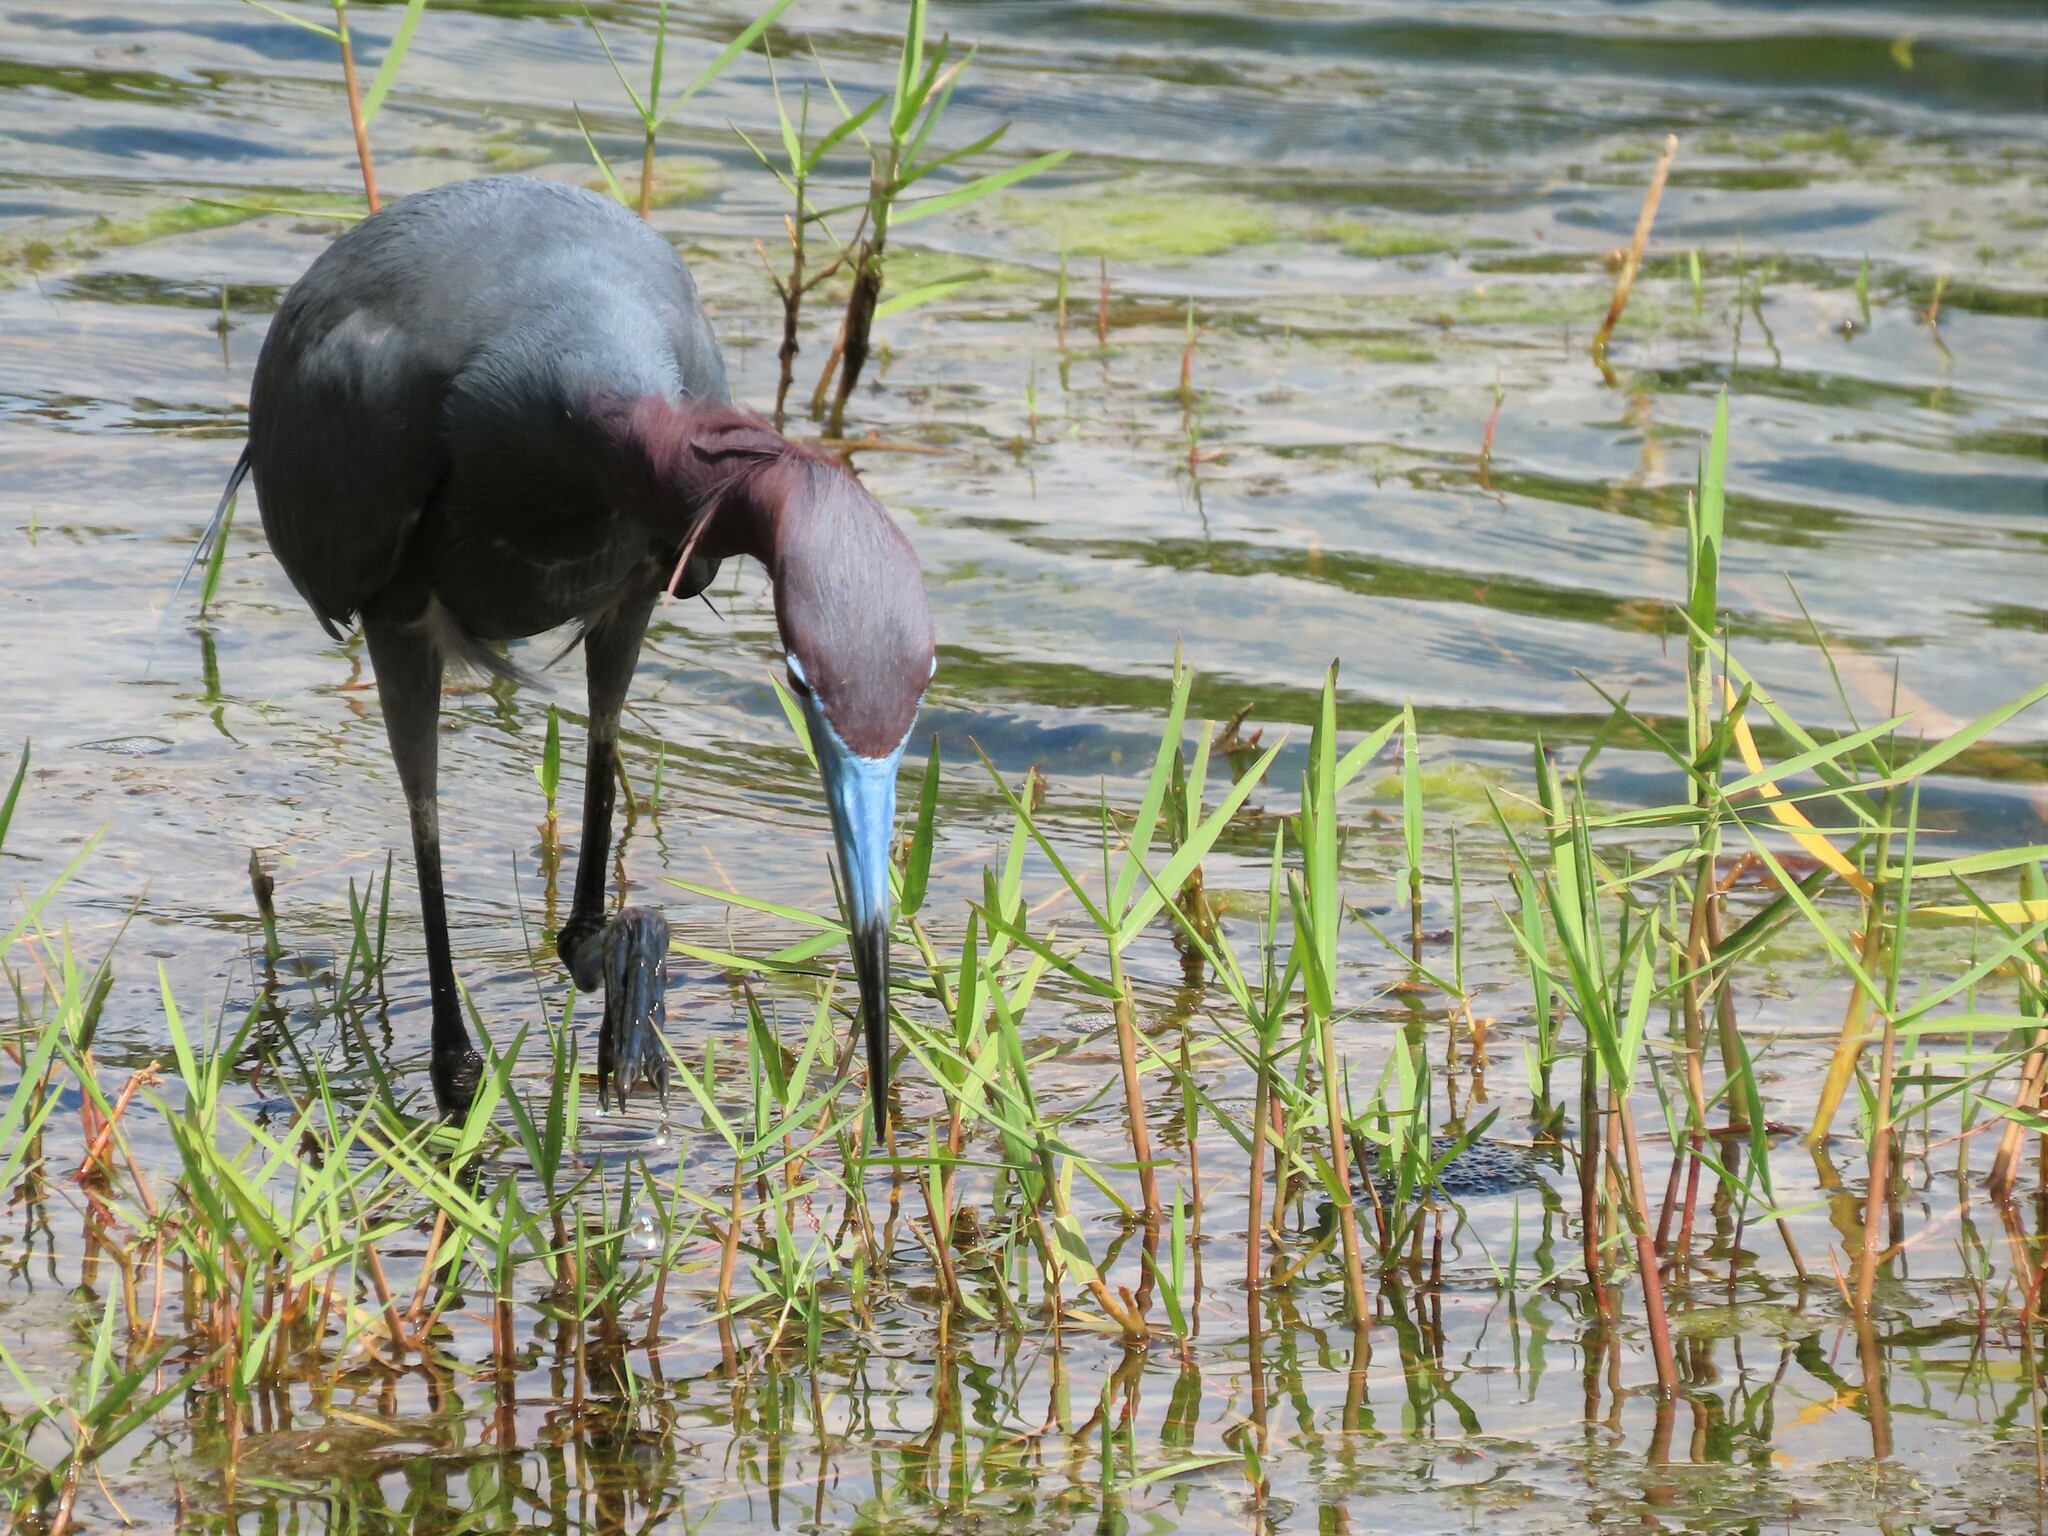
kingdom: Animalia
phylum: Chordata
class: Aves
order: Pelecaniformes
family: Ardeidae
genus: Egretta
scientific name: Egretta caerulea
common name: Little blue heron
